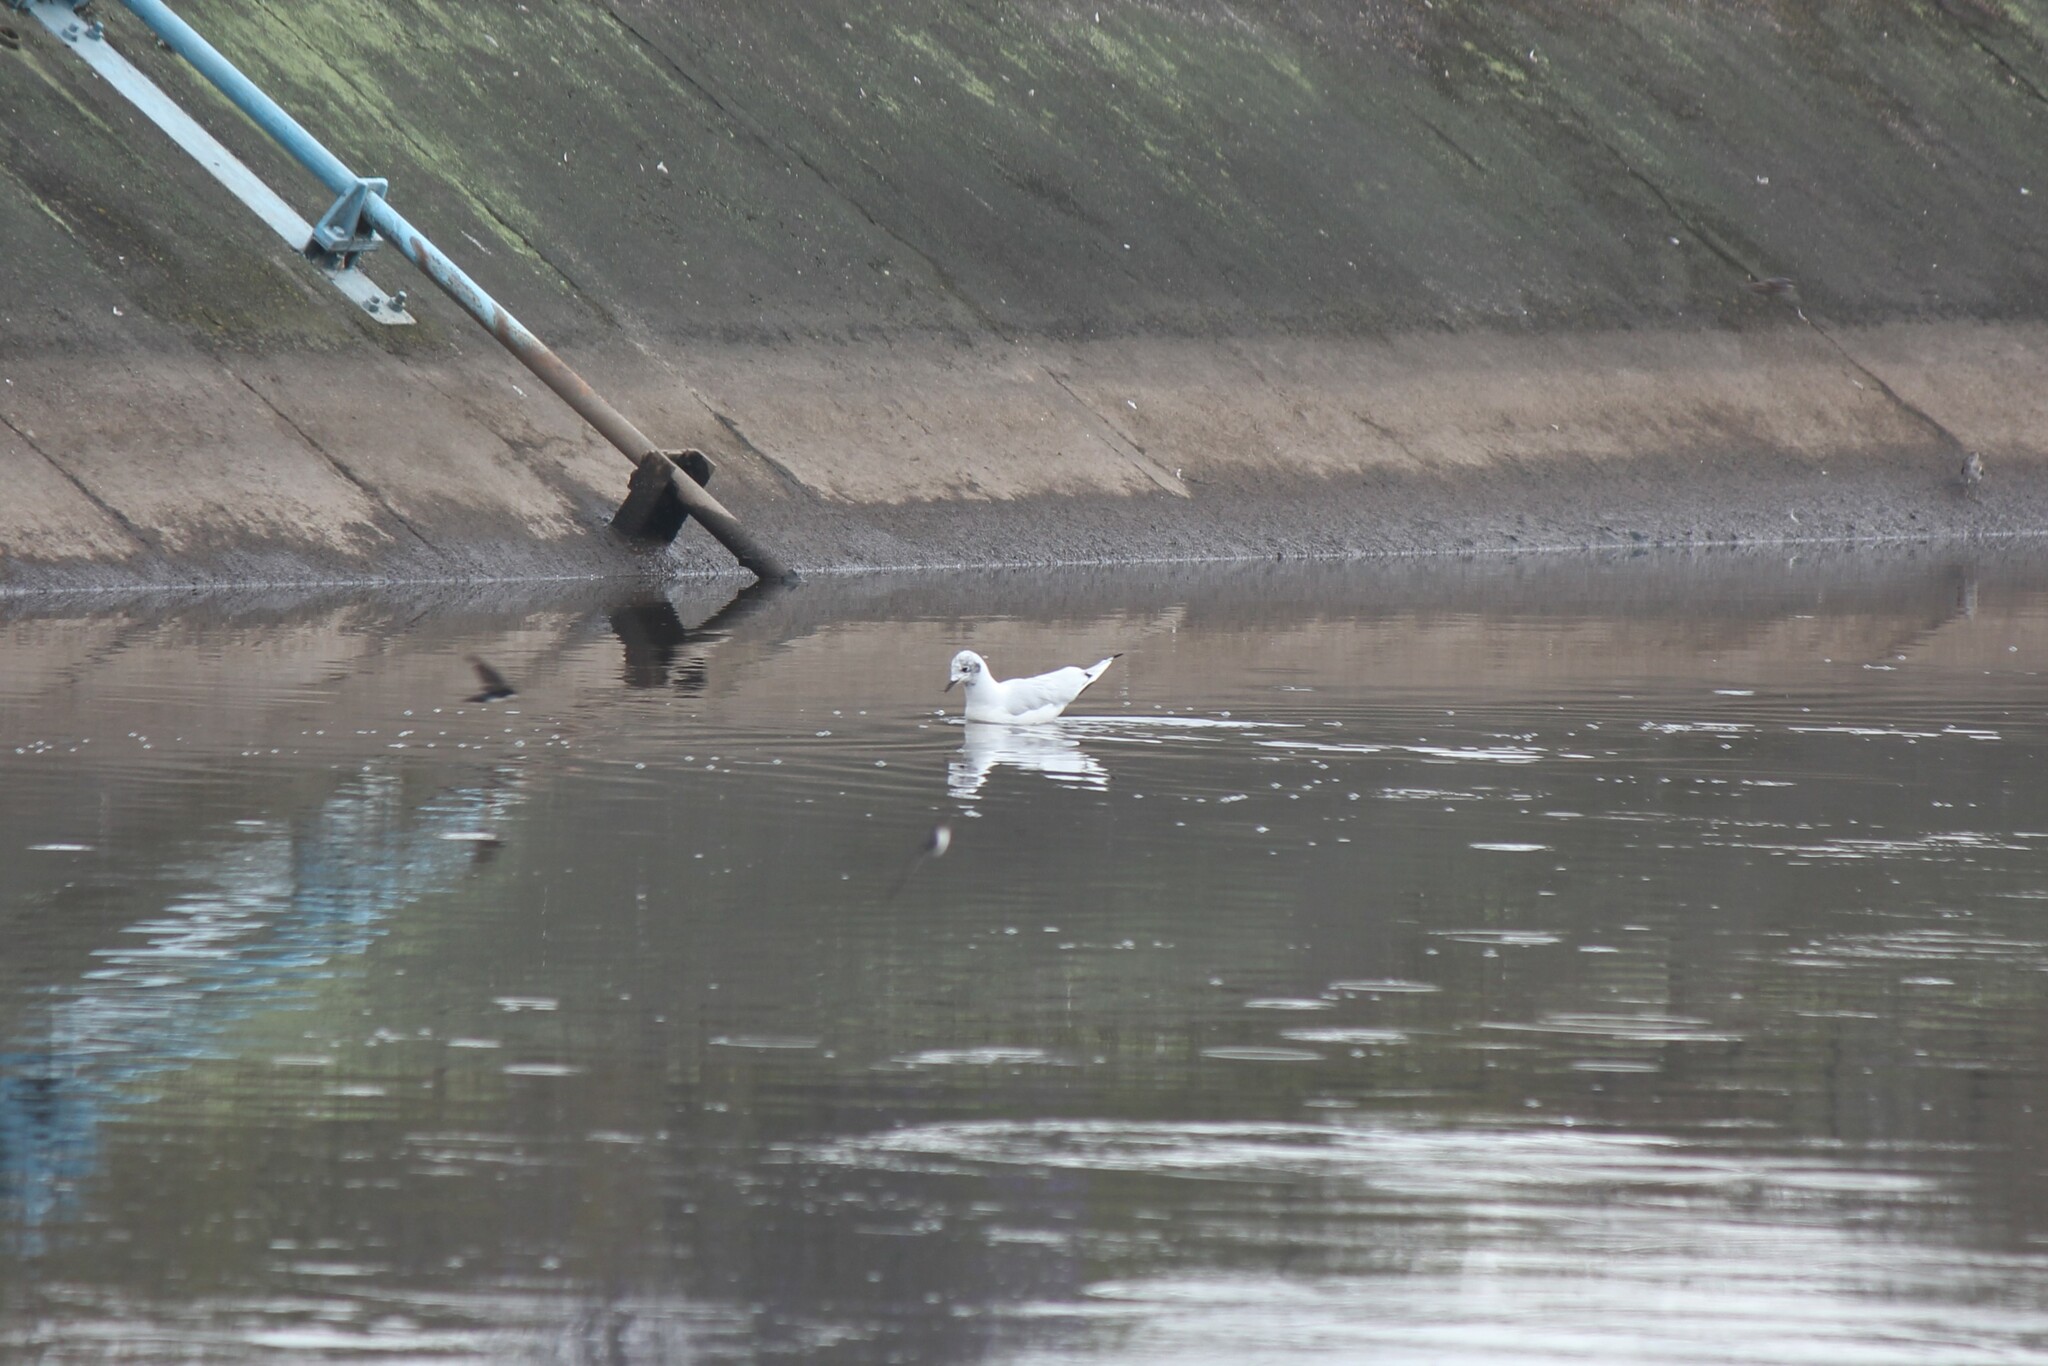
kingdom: Animalia
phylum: Chordata
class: Aves
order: Charadriiformes
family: Laridae
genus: Chroicocephalus
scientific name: Chroicocephalus serranus
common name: Andean gull
